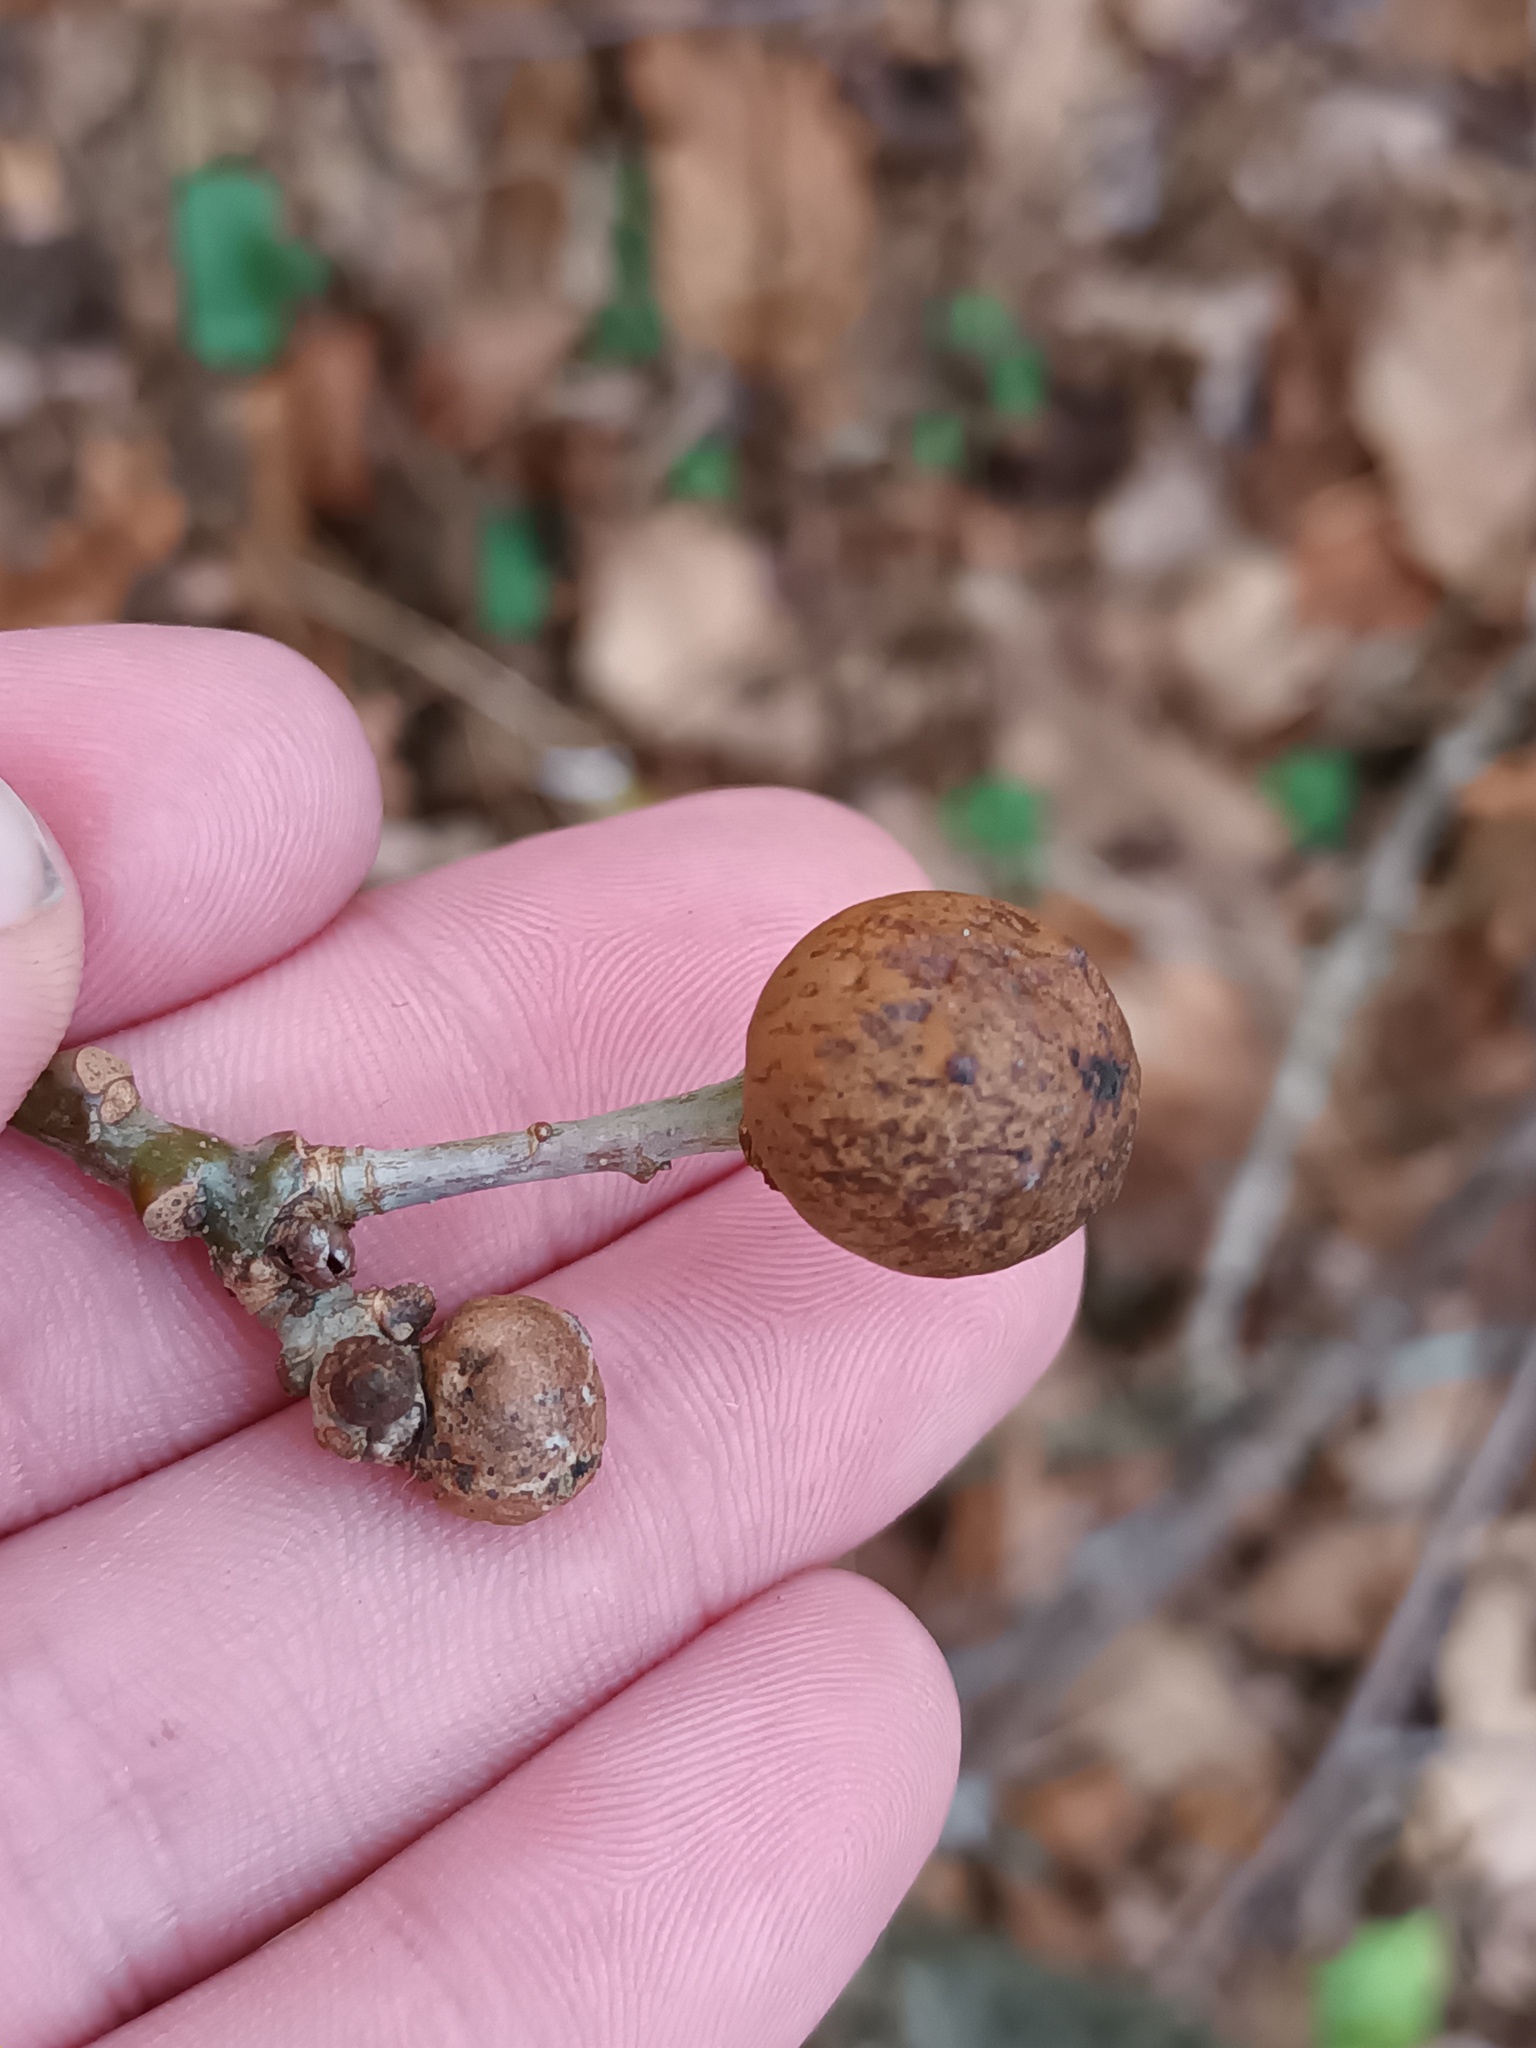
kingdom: Animalia
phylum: Arthropoda
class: Insecta
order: Hymenoptera
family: Cynipidae
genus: Andricus
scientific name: Andricus kollari
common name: Marble gall
